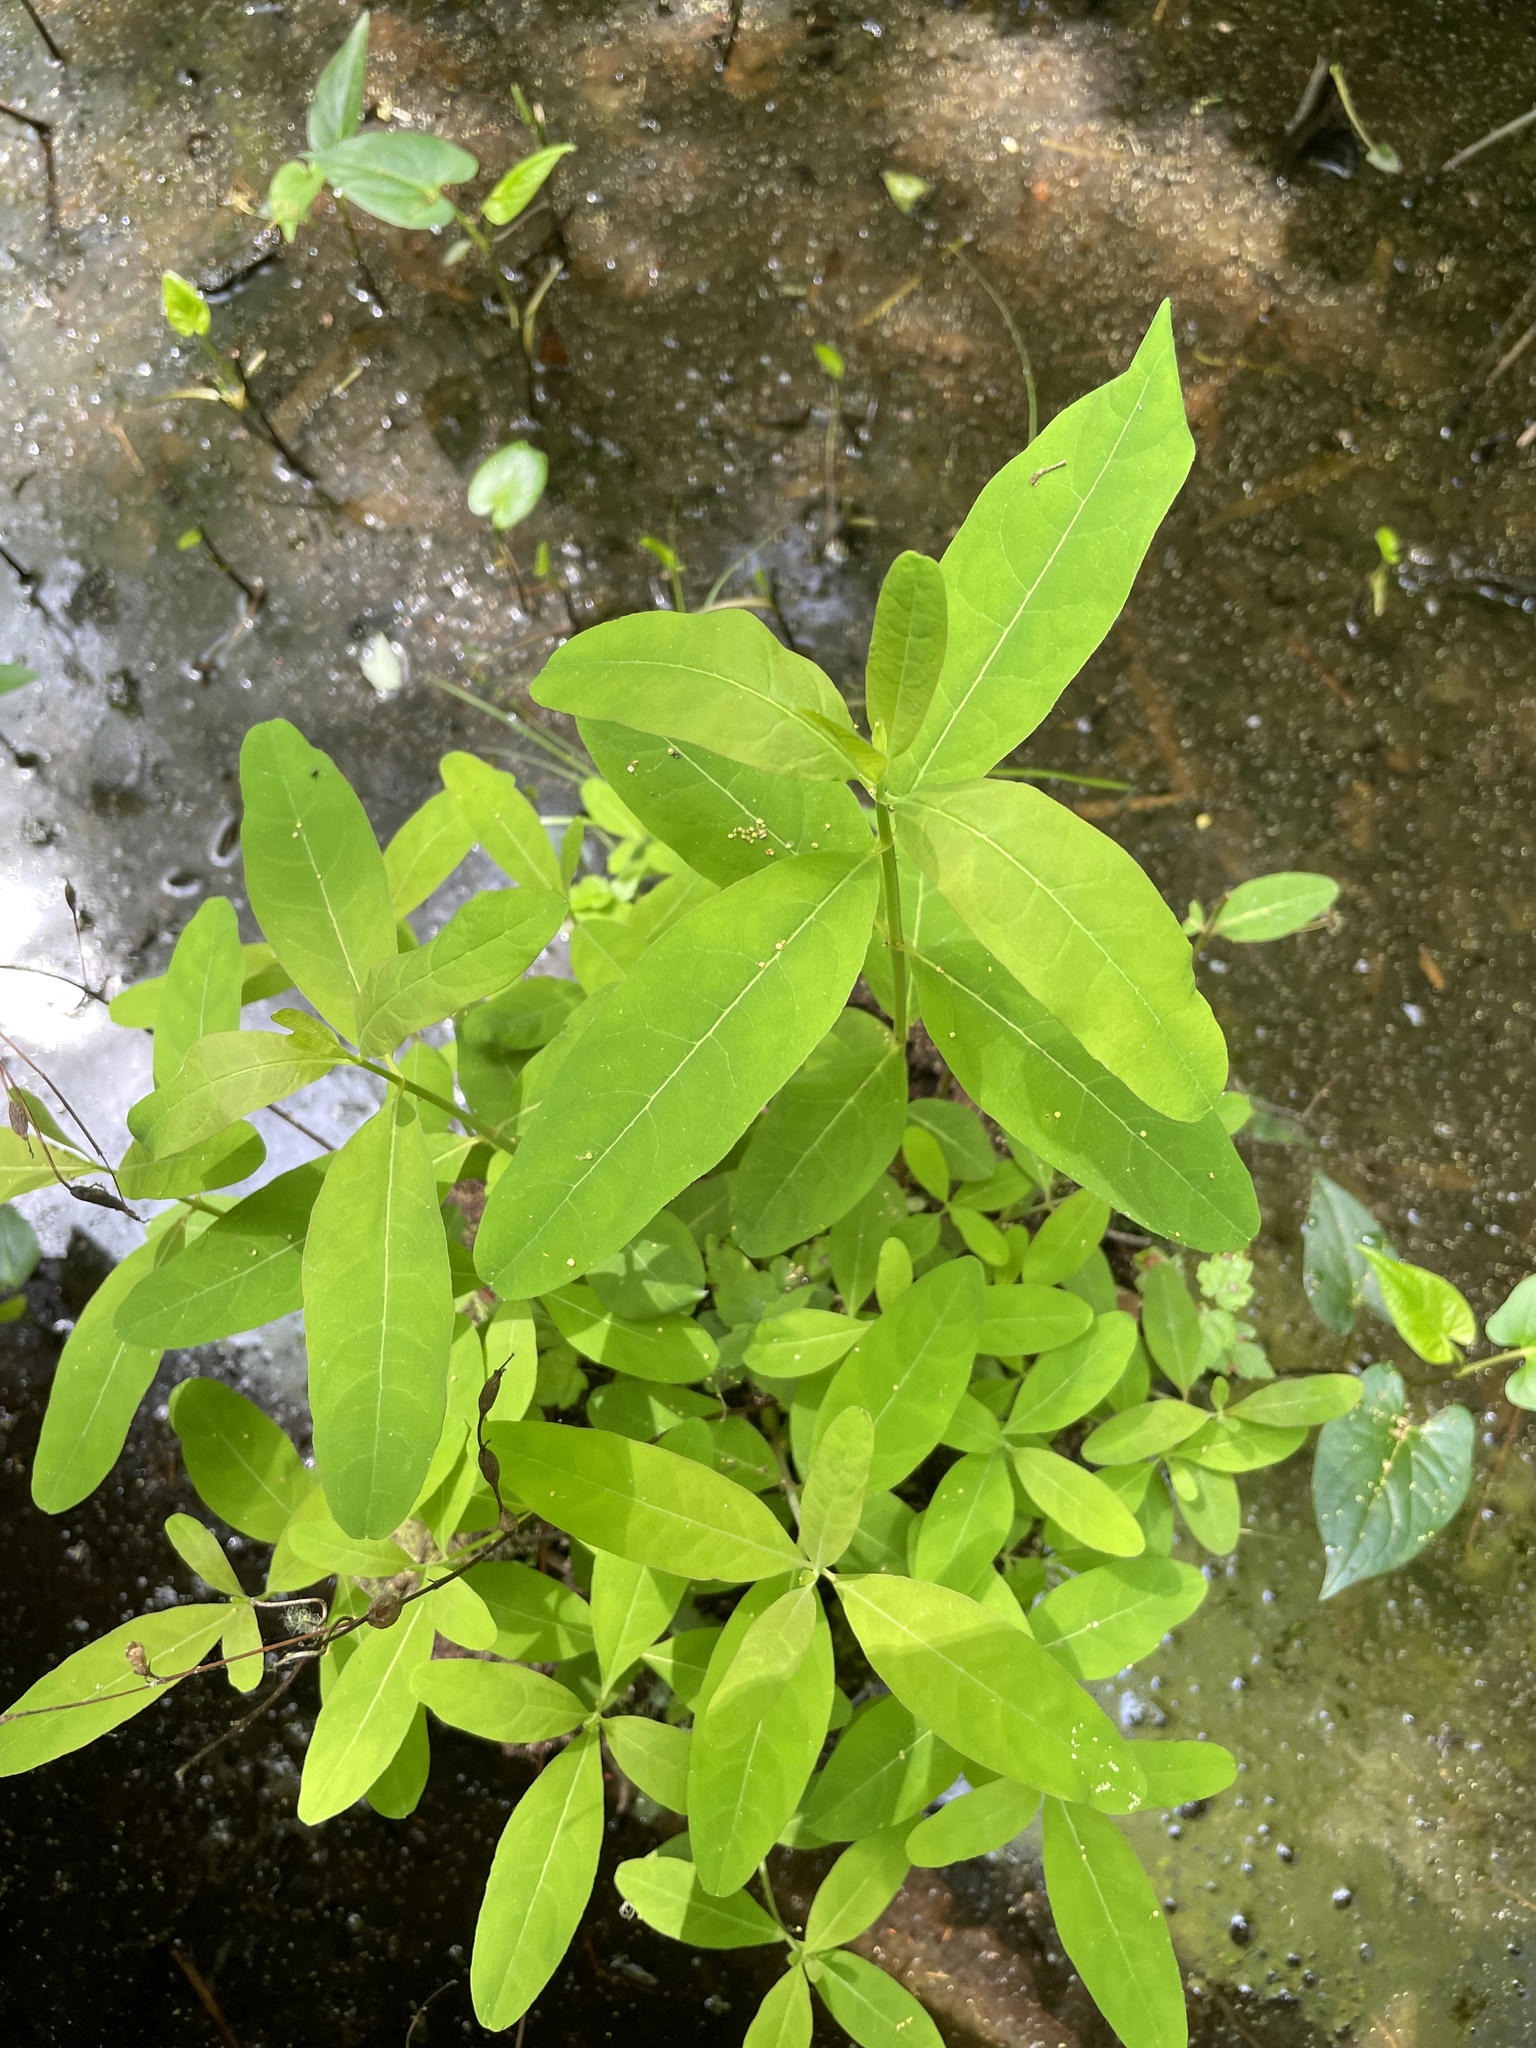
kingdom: Plantae
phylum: Tracheophyta
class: Magnoliopsida
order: Malpighiales
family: Hypericaceae
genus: Triadenum
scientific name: Triadenum walteri
